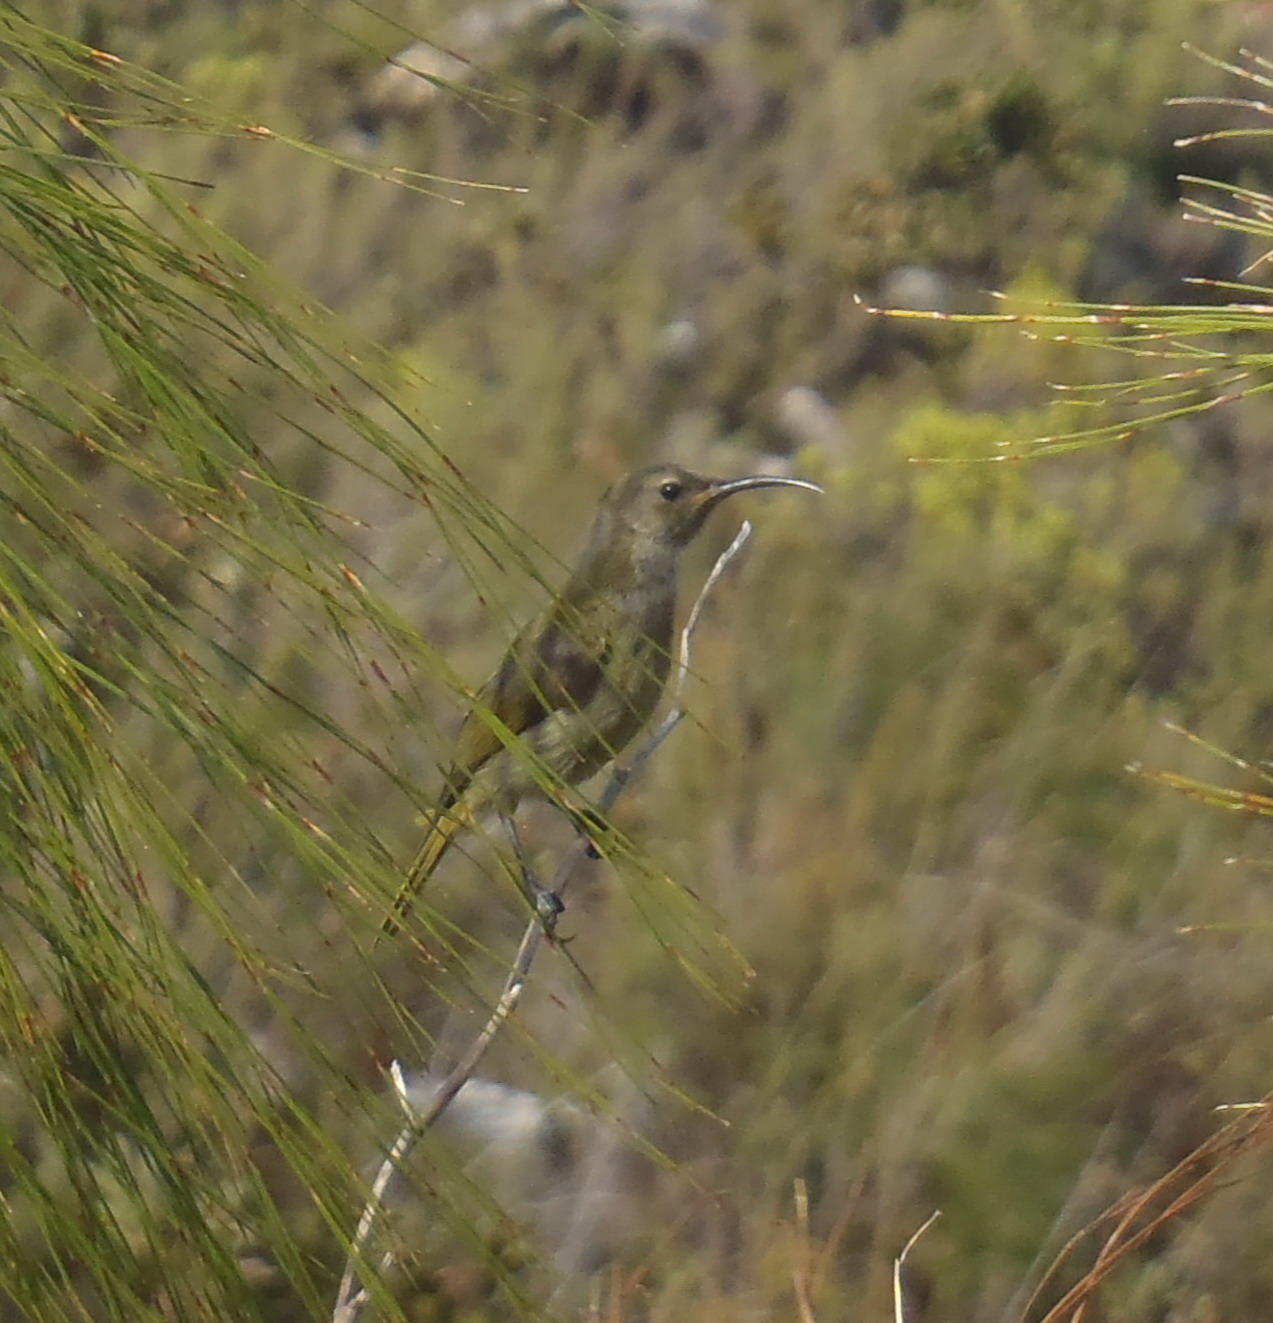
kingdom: Animalia
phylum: Chordata
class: Aves
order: Passeriformes
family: Nectariniidae
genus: Anthobaphes
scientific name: Anthobaphes violacea
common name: Orange-breasted sunbird
